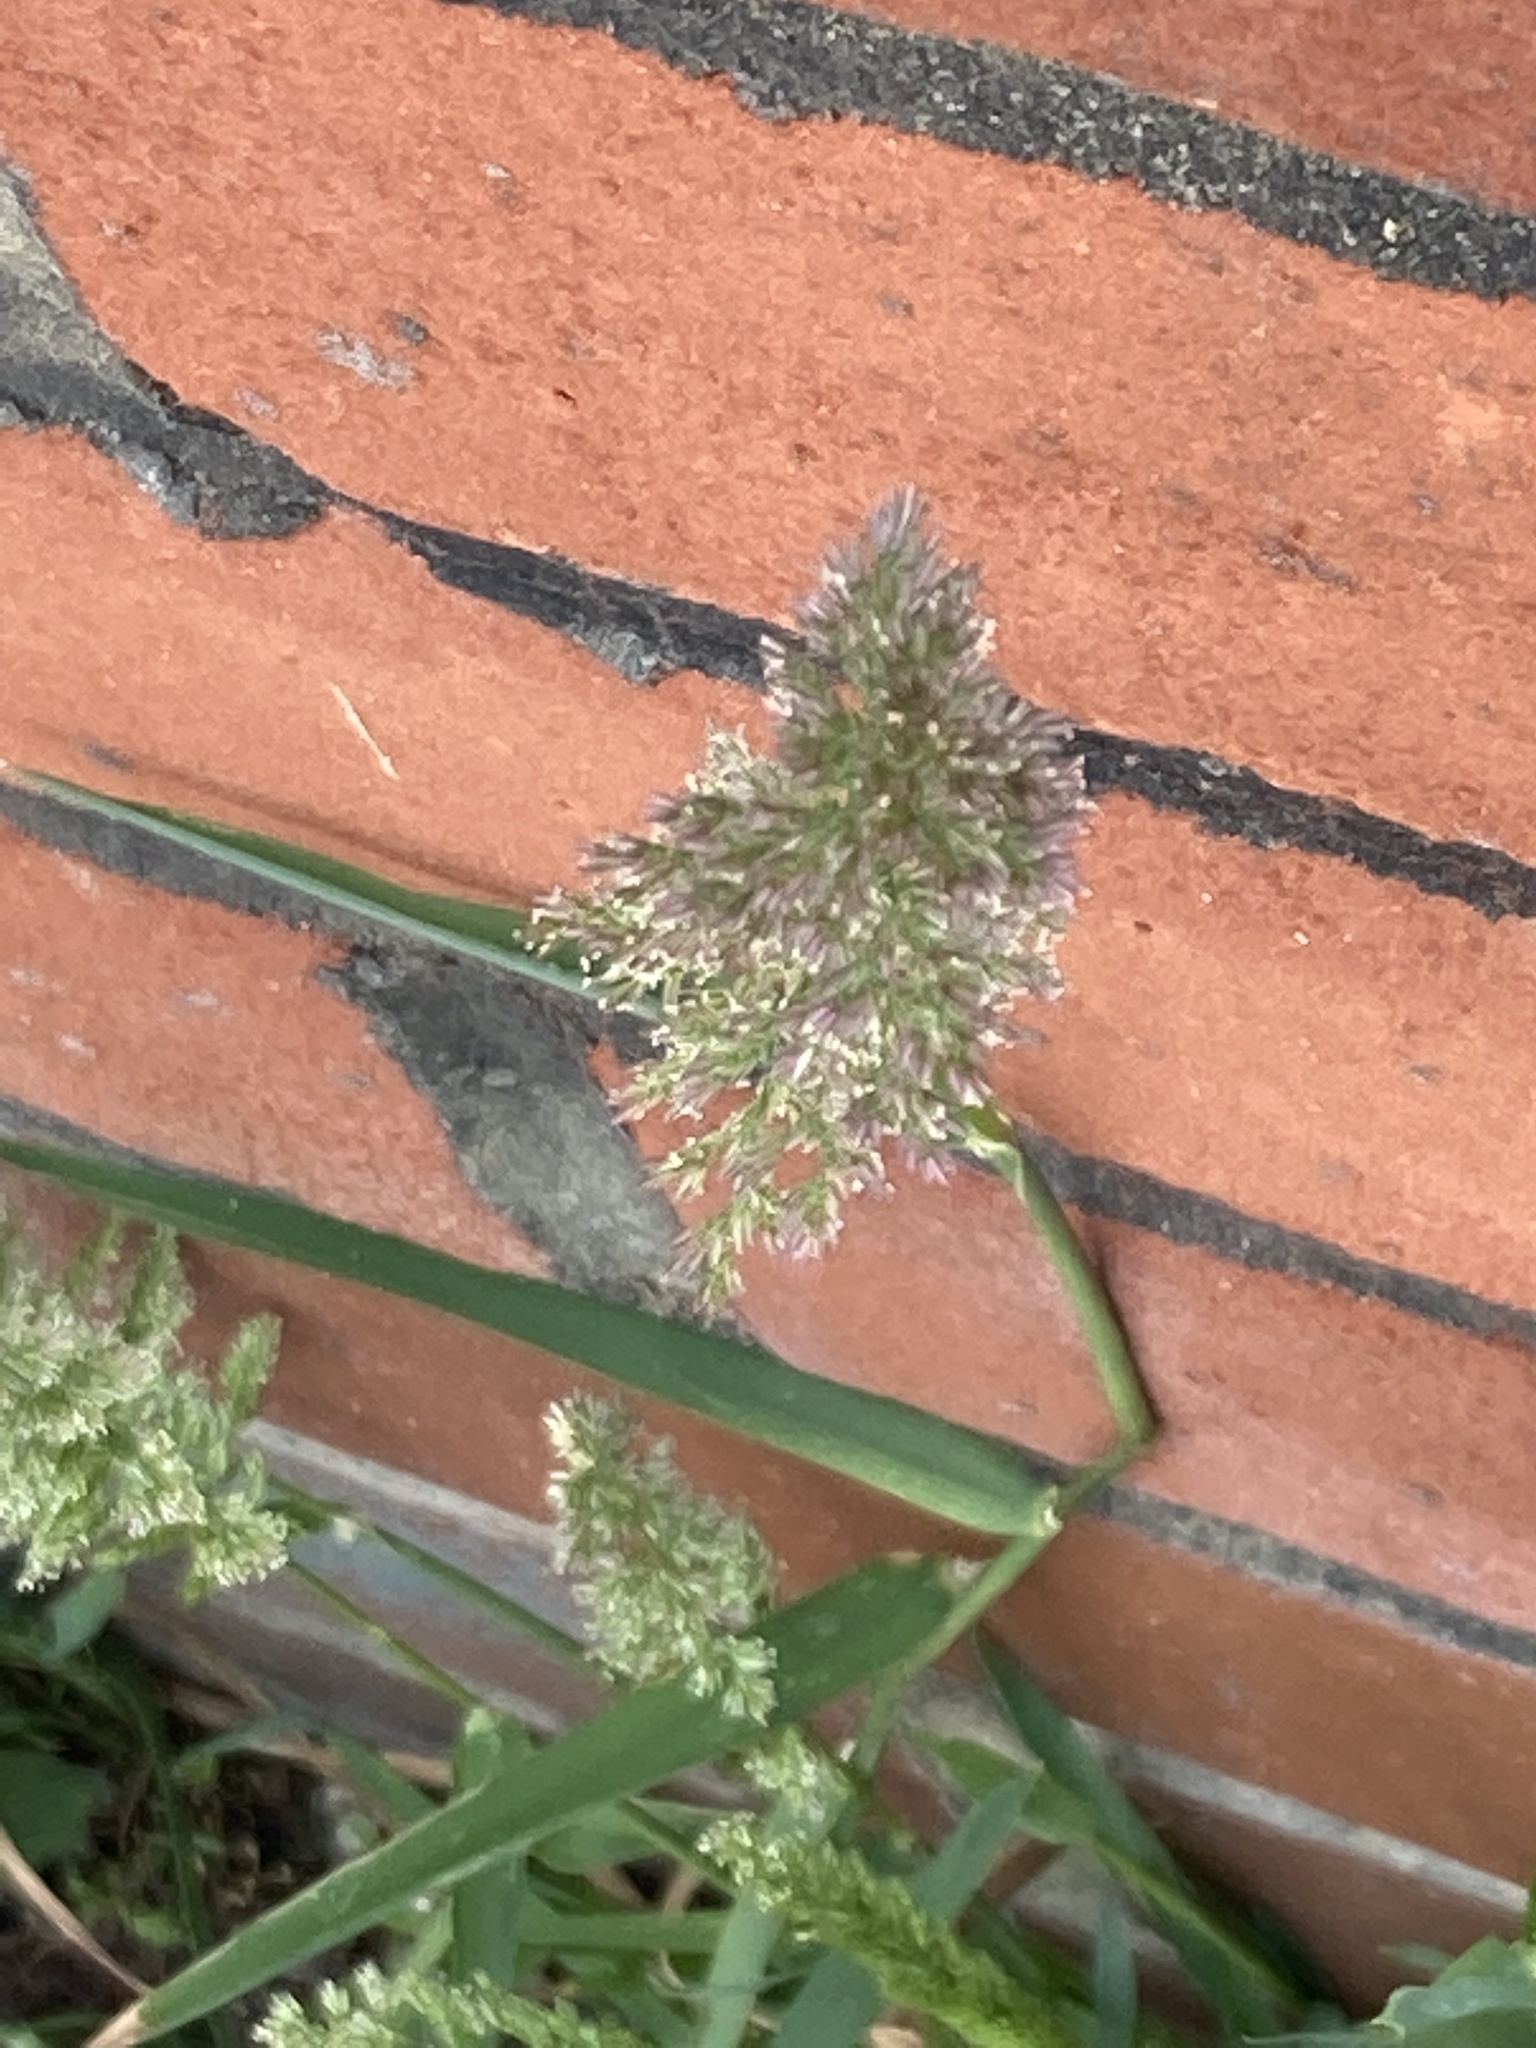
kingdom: Plantae
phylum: Tracheophyta
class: Liliopsida
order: Poales
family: Poaceae
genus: Polypogon
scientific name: Polypogon viridis
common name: Water bent
